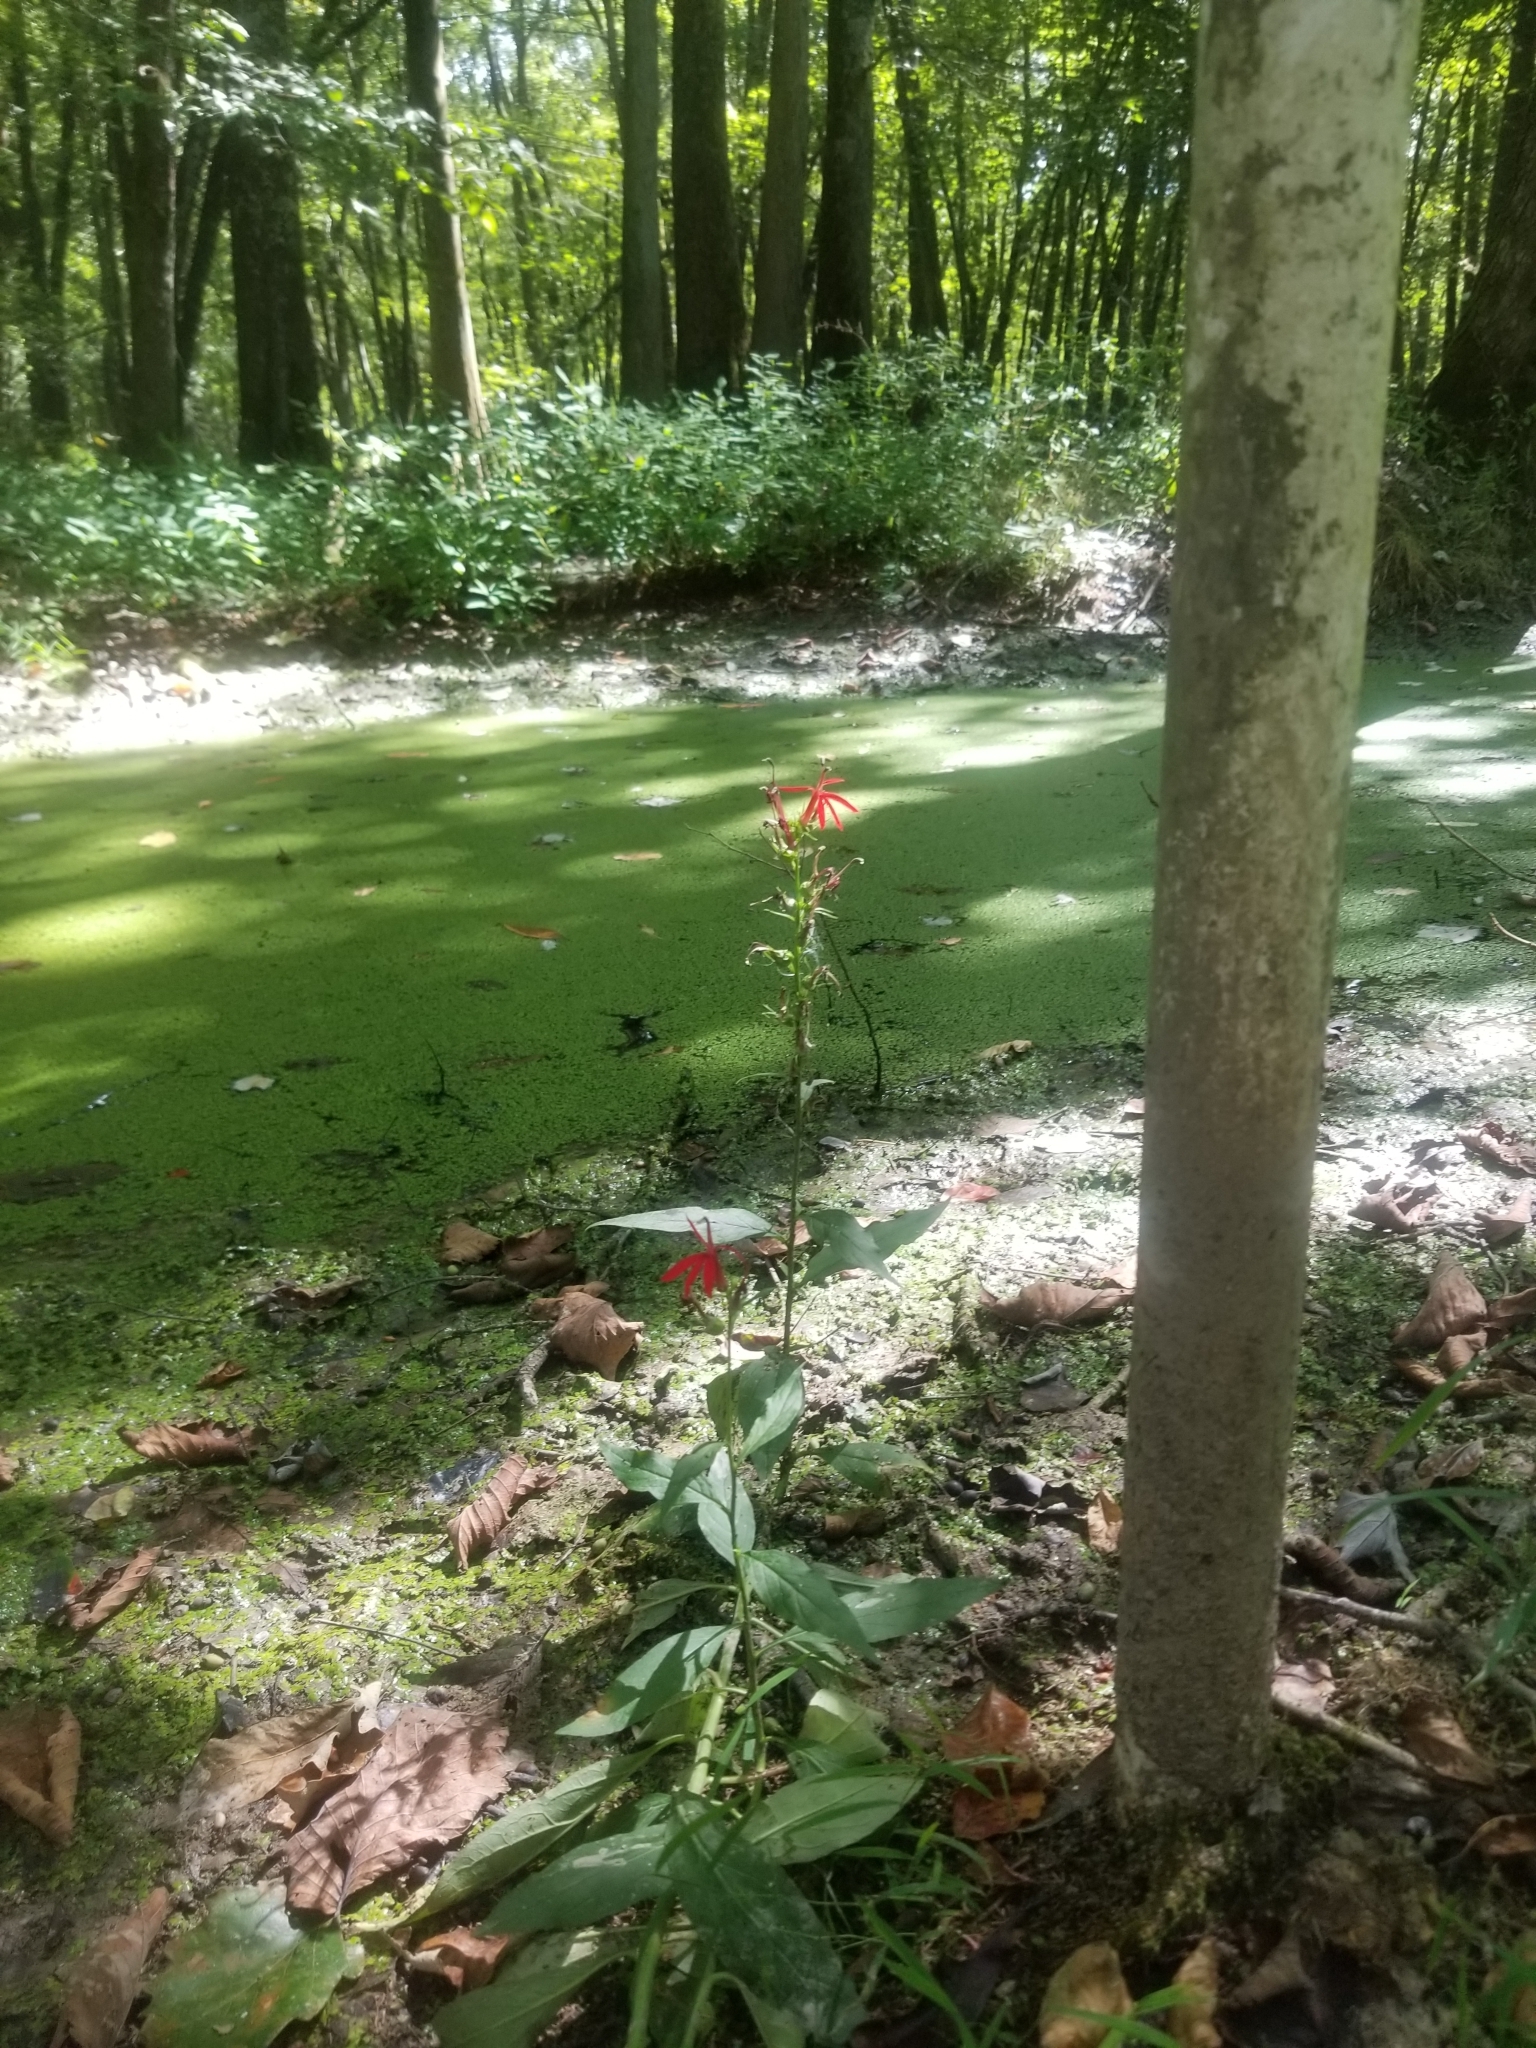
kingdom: Plantae
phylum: Tracheophyta
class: Magnoliopsida
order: Asterales
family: Campanulaceae
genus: Lobelia
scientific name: Lobelia cardinalis
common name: Cardinal flower
